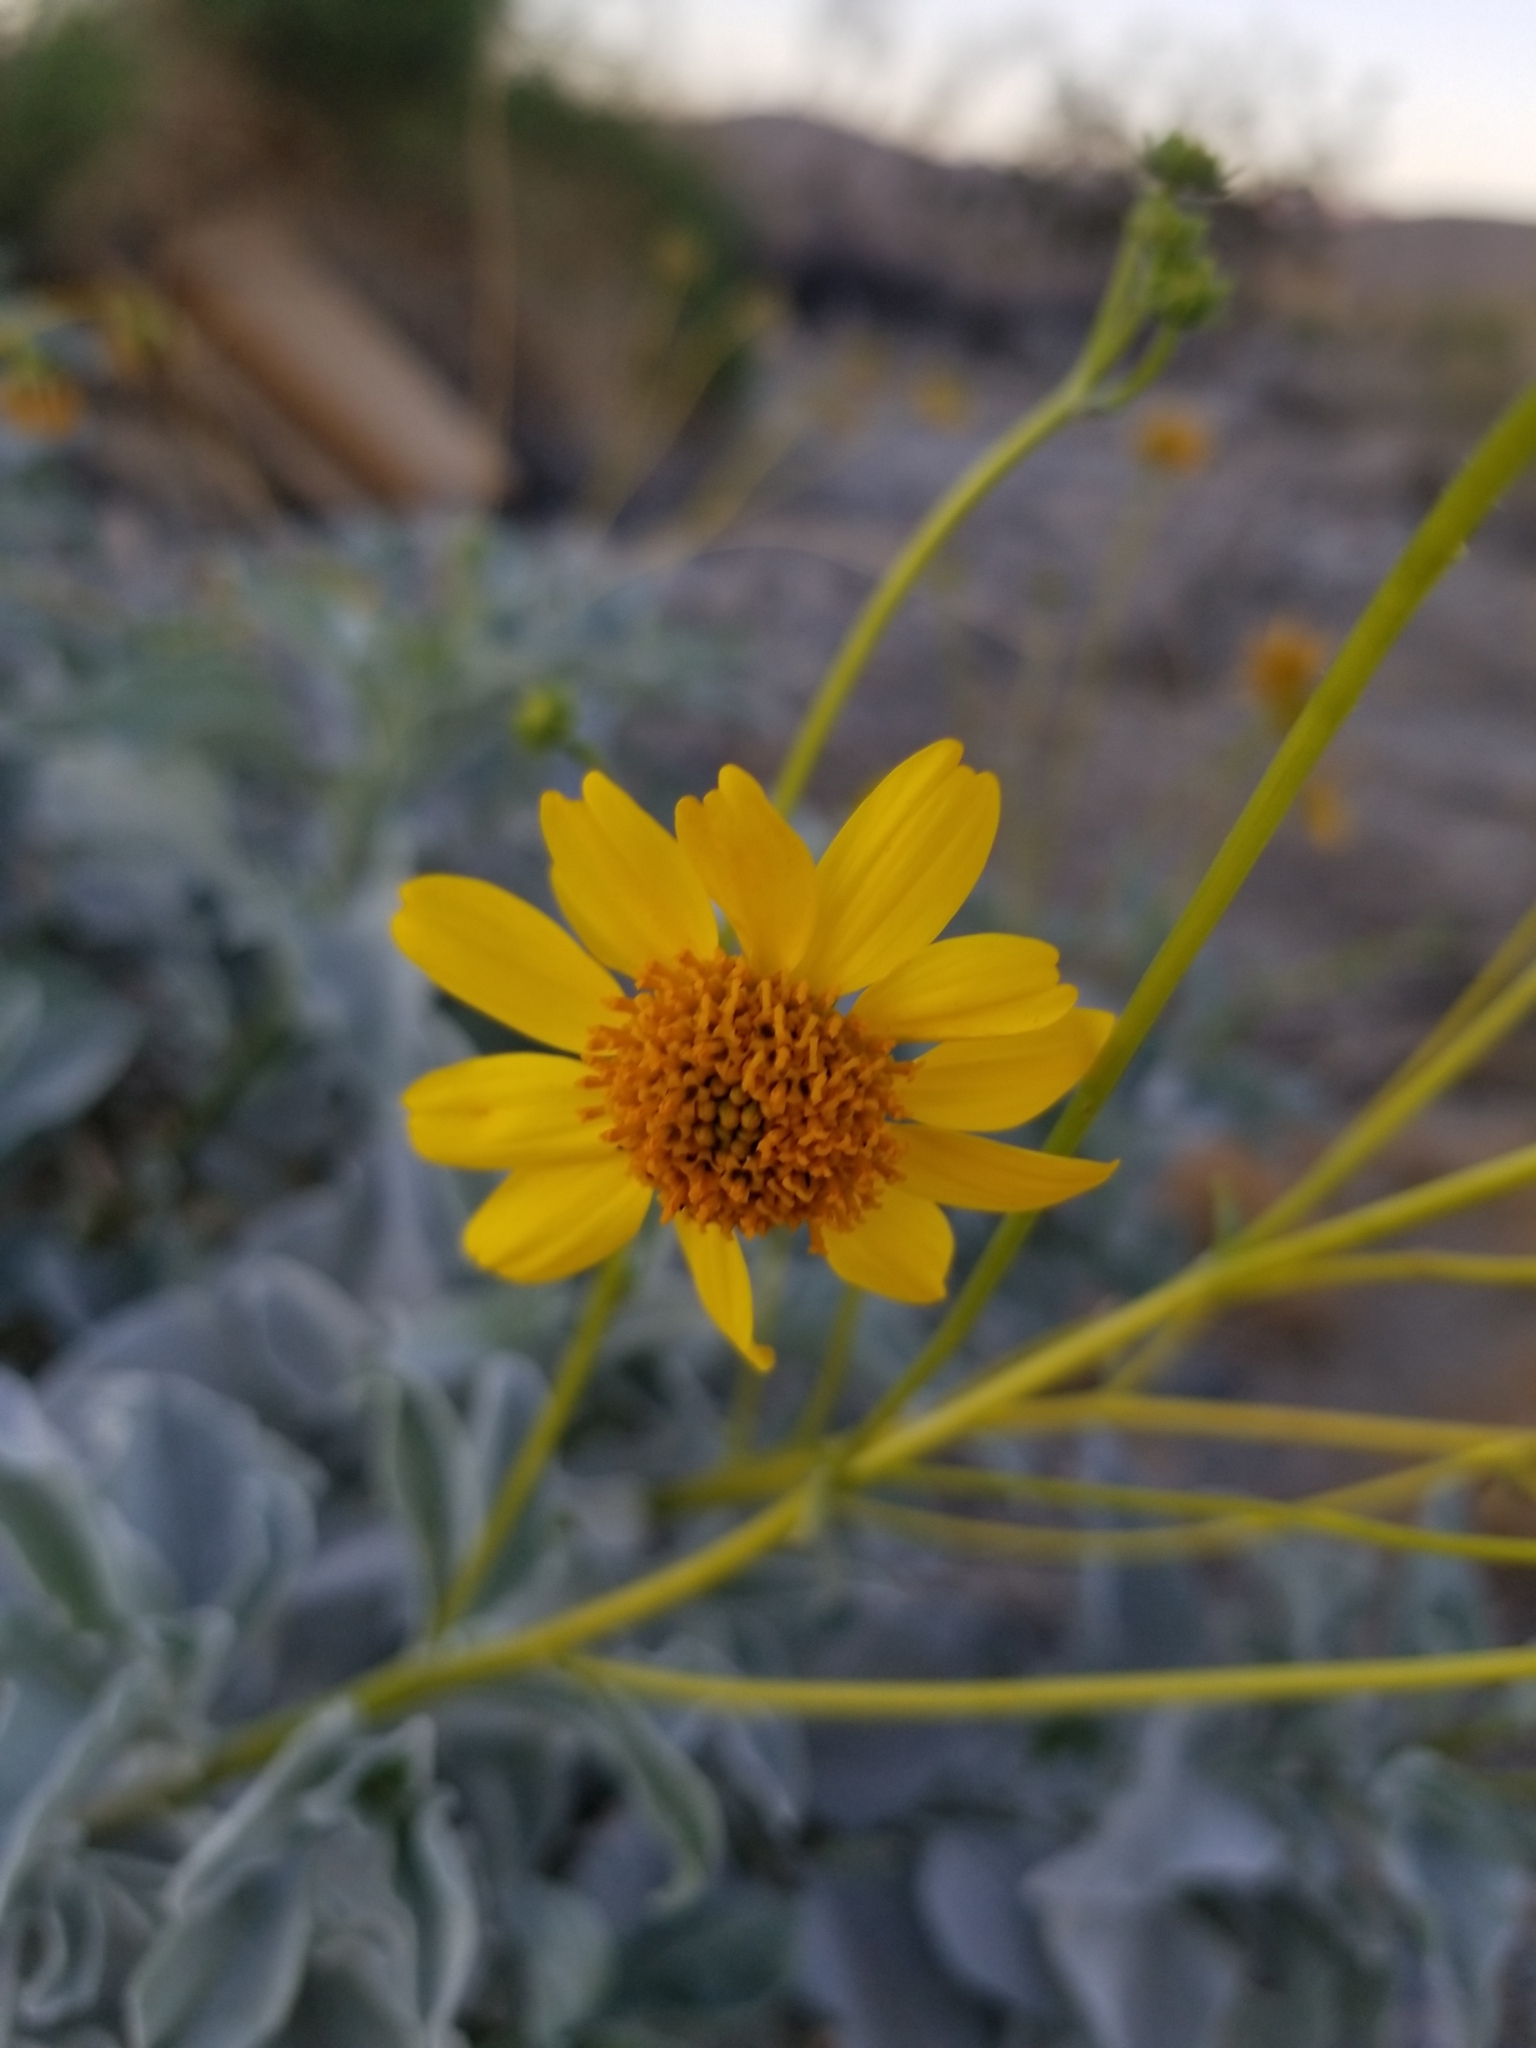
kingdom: Plantae
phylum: Tracheophyta
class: Magnoliopsida
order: Asterales
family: Asteraceae
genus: Encelia
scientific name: Encelia farinosa
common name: Brittlebush
